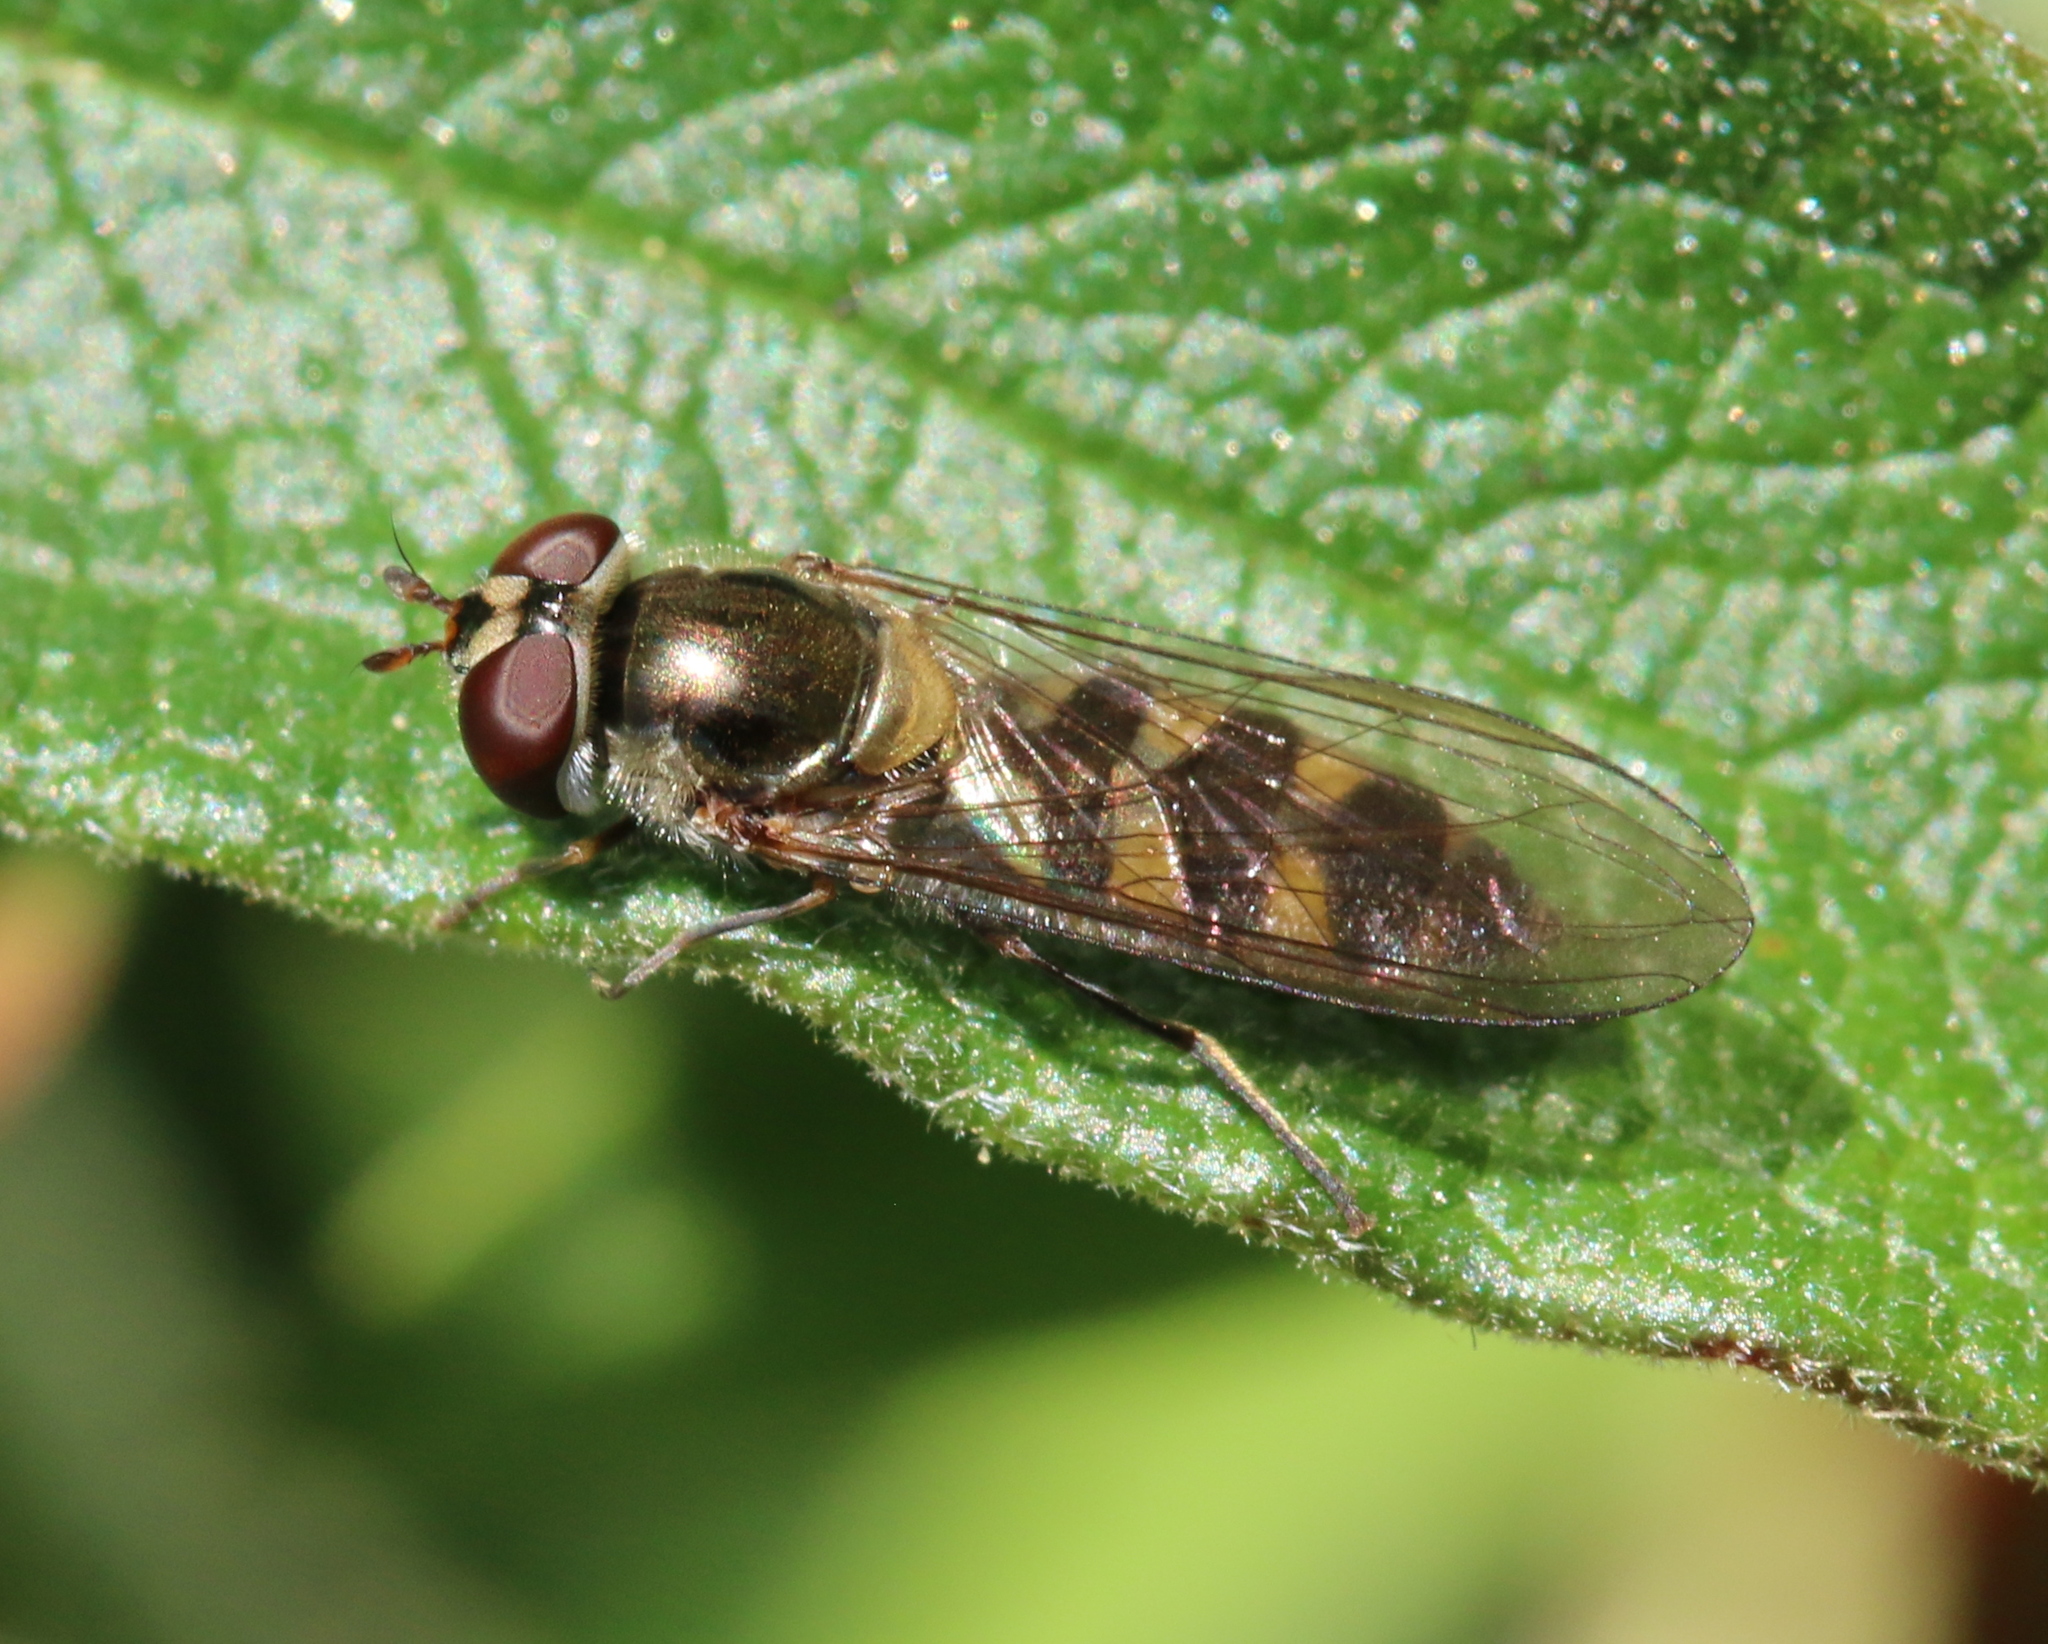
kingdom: Animalia
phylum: Arthropoda
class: Insecta
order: Diptera
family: Syrphidae
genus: Meliscaeva
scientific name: Meliscaeva auricollis
